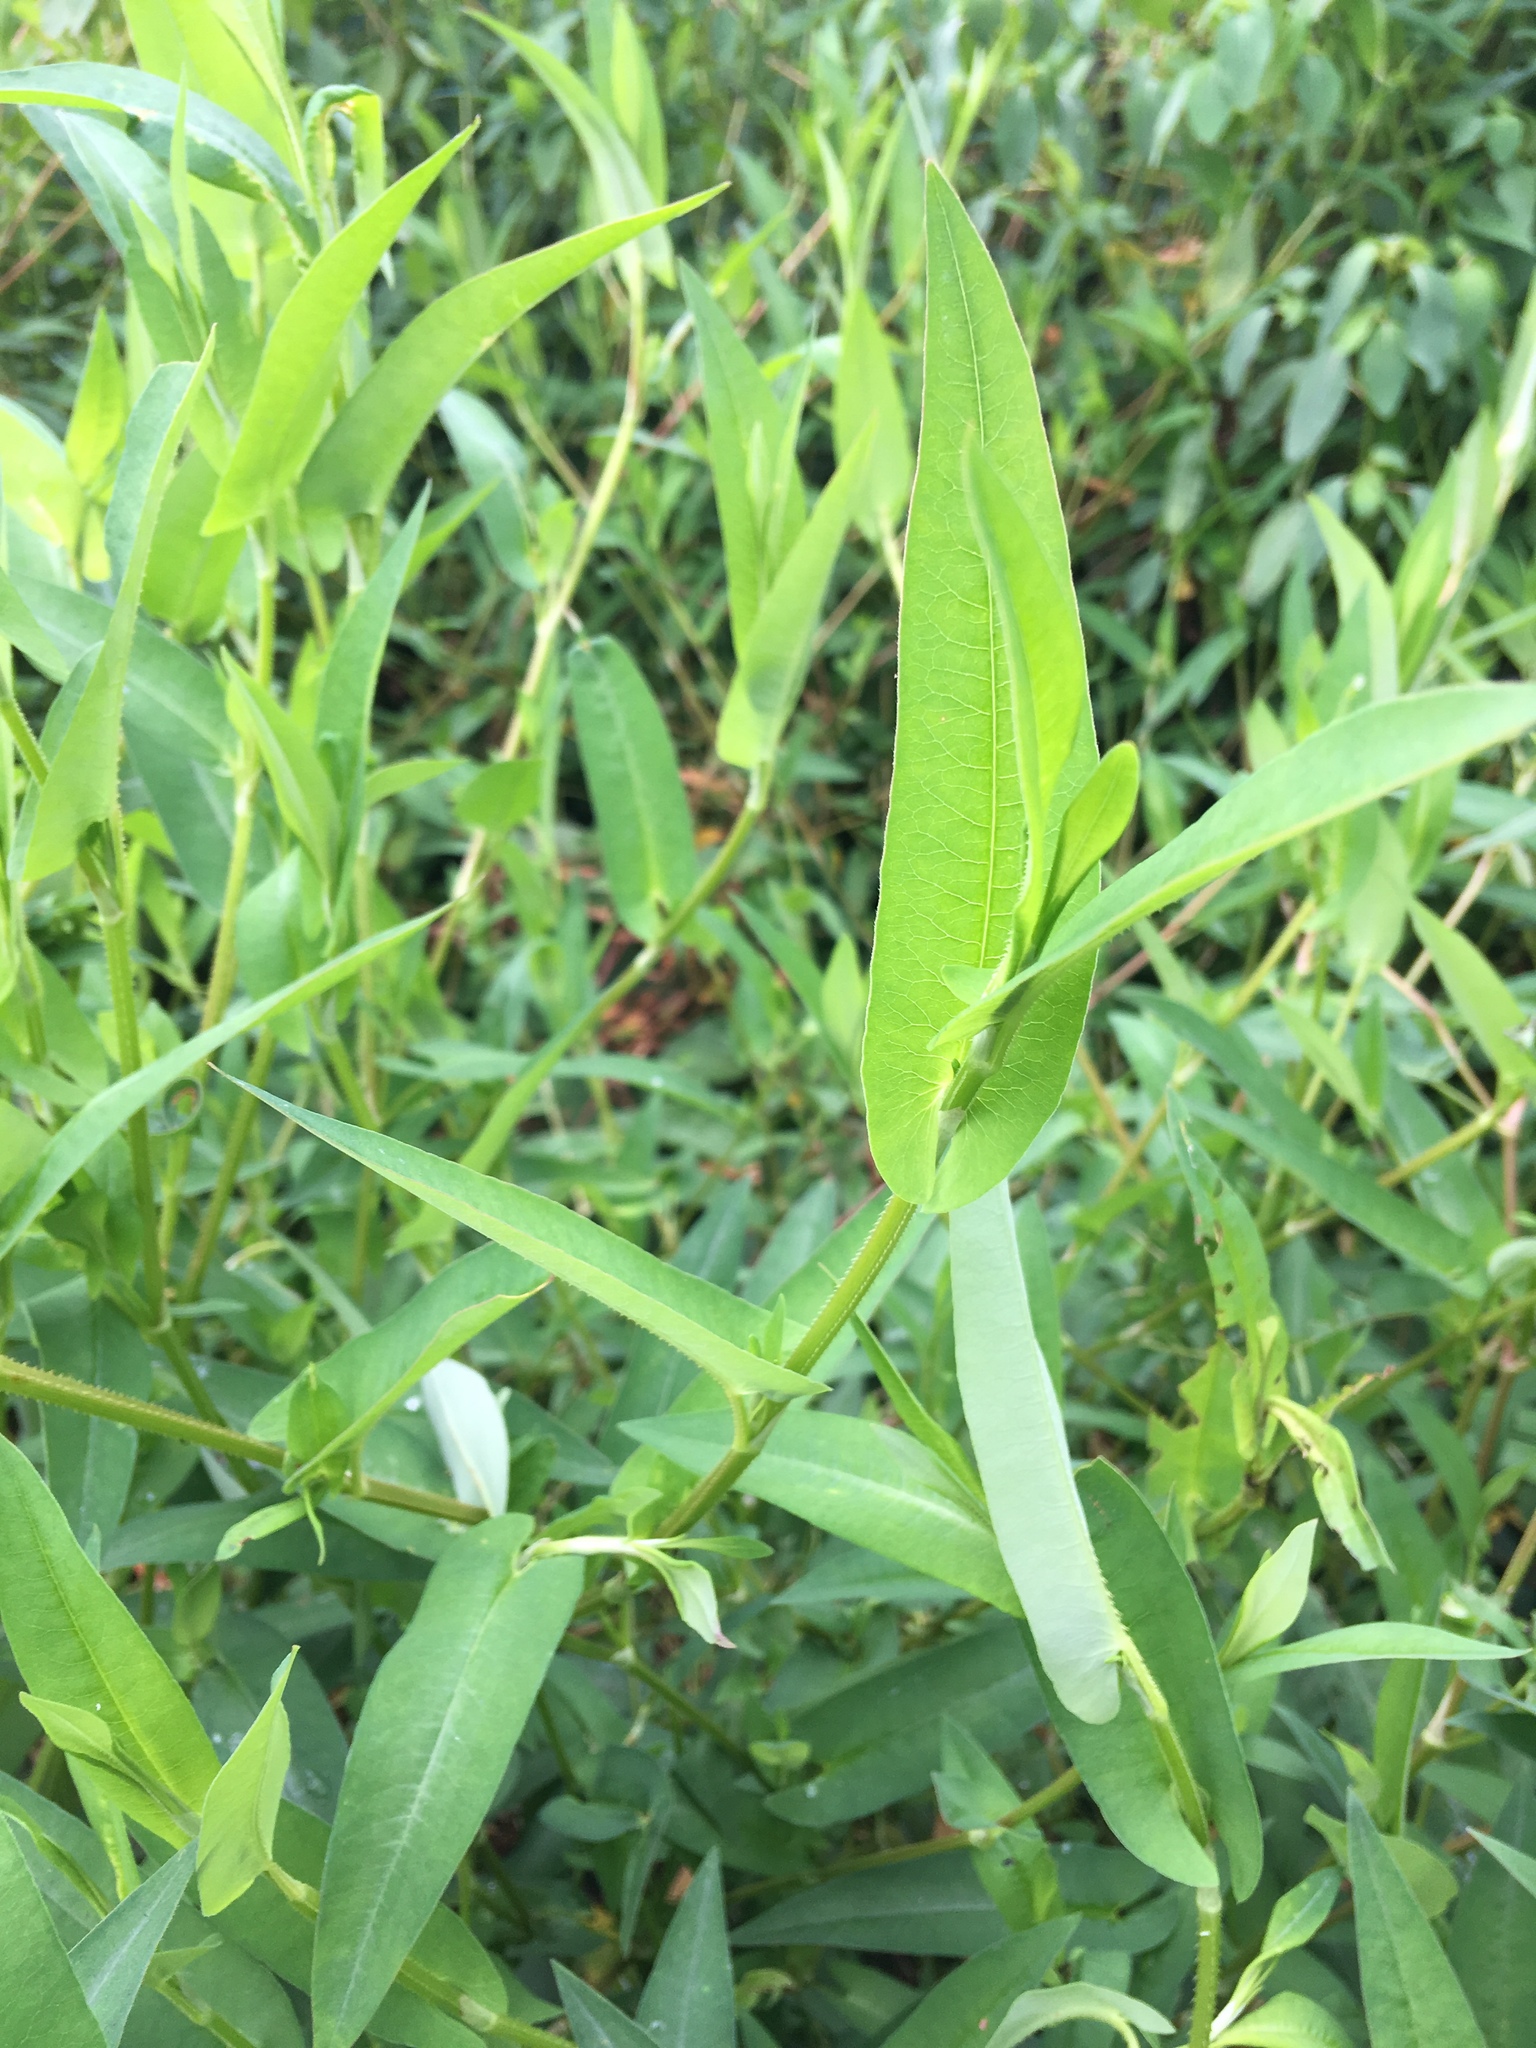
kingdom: Plantae
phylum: Tracheophyta
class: Magnoliopsida
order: Caryophyllales
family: Polygonaceae
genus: Persicaria
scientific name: Persicaria sagittata
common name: American tearthumb
